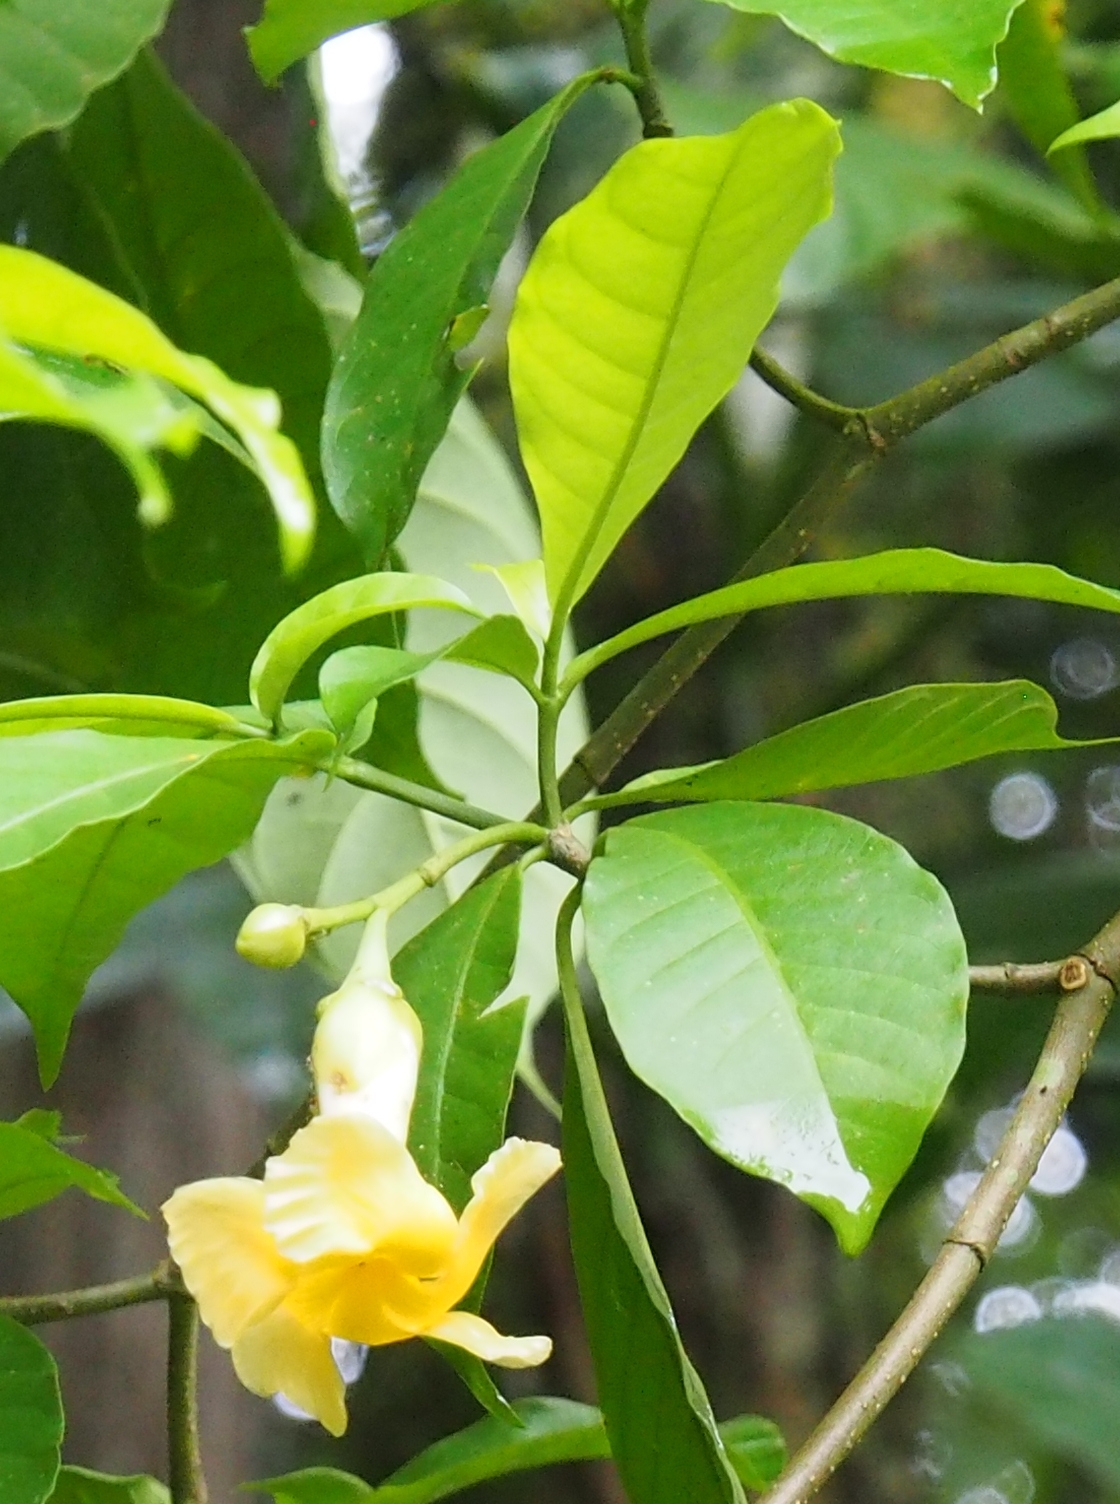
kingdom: Plantae
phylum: Tracheophyta
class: Magnoliopsida
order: Gentianales
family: Apocynaceae
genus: Tabernaemontana
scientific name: Tabernaemontana robinsonii
